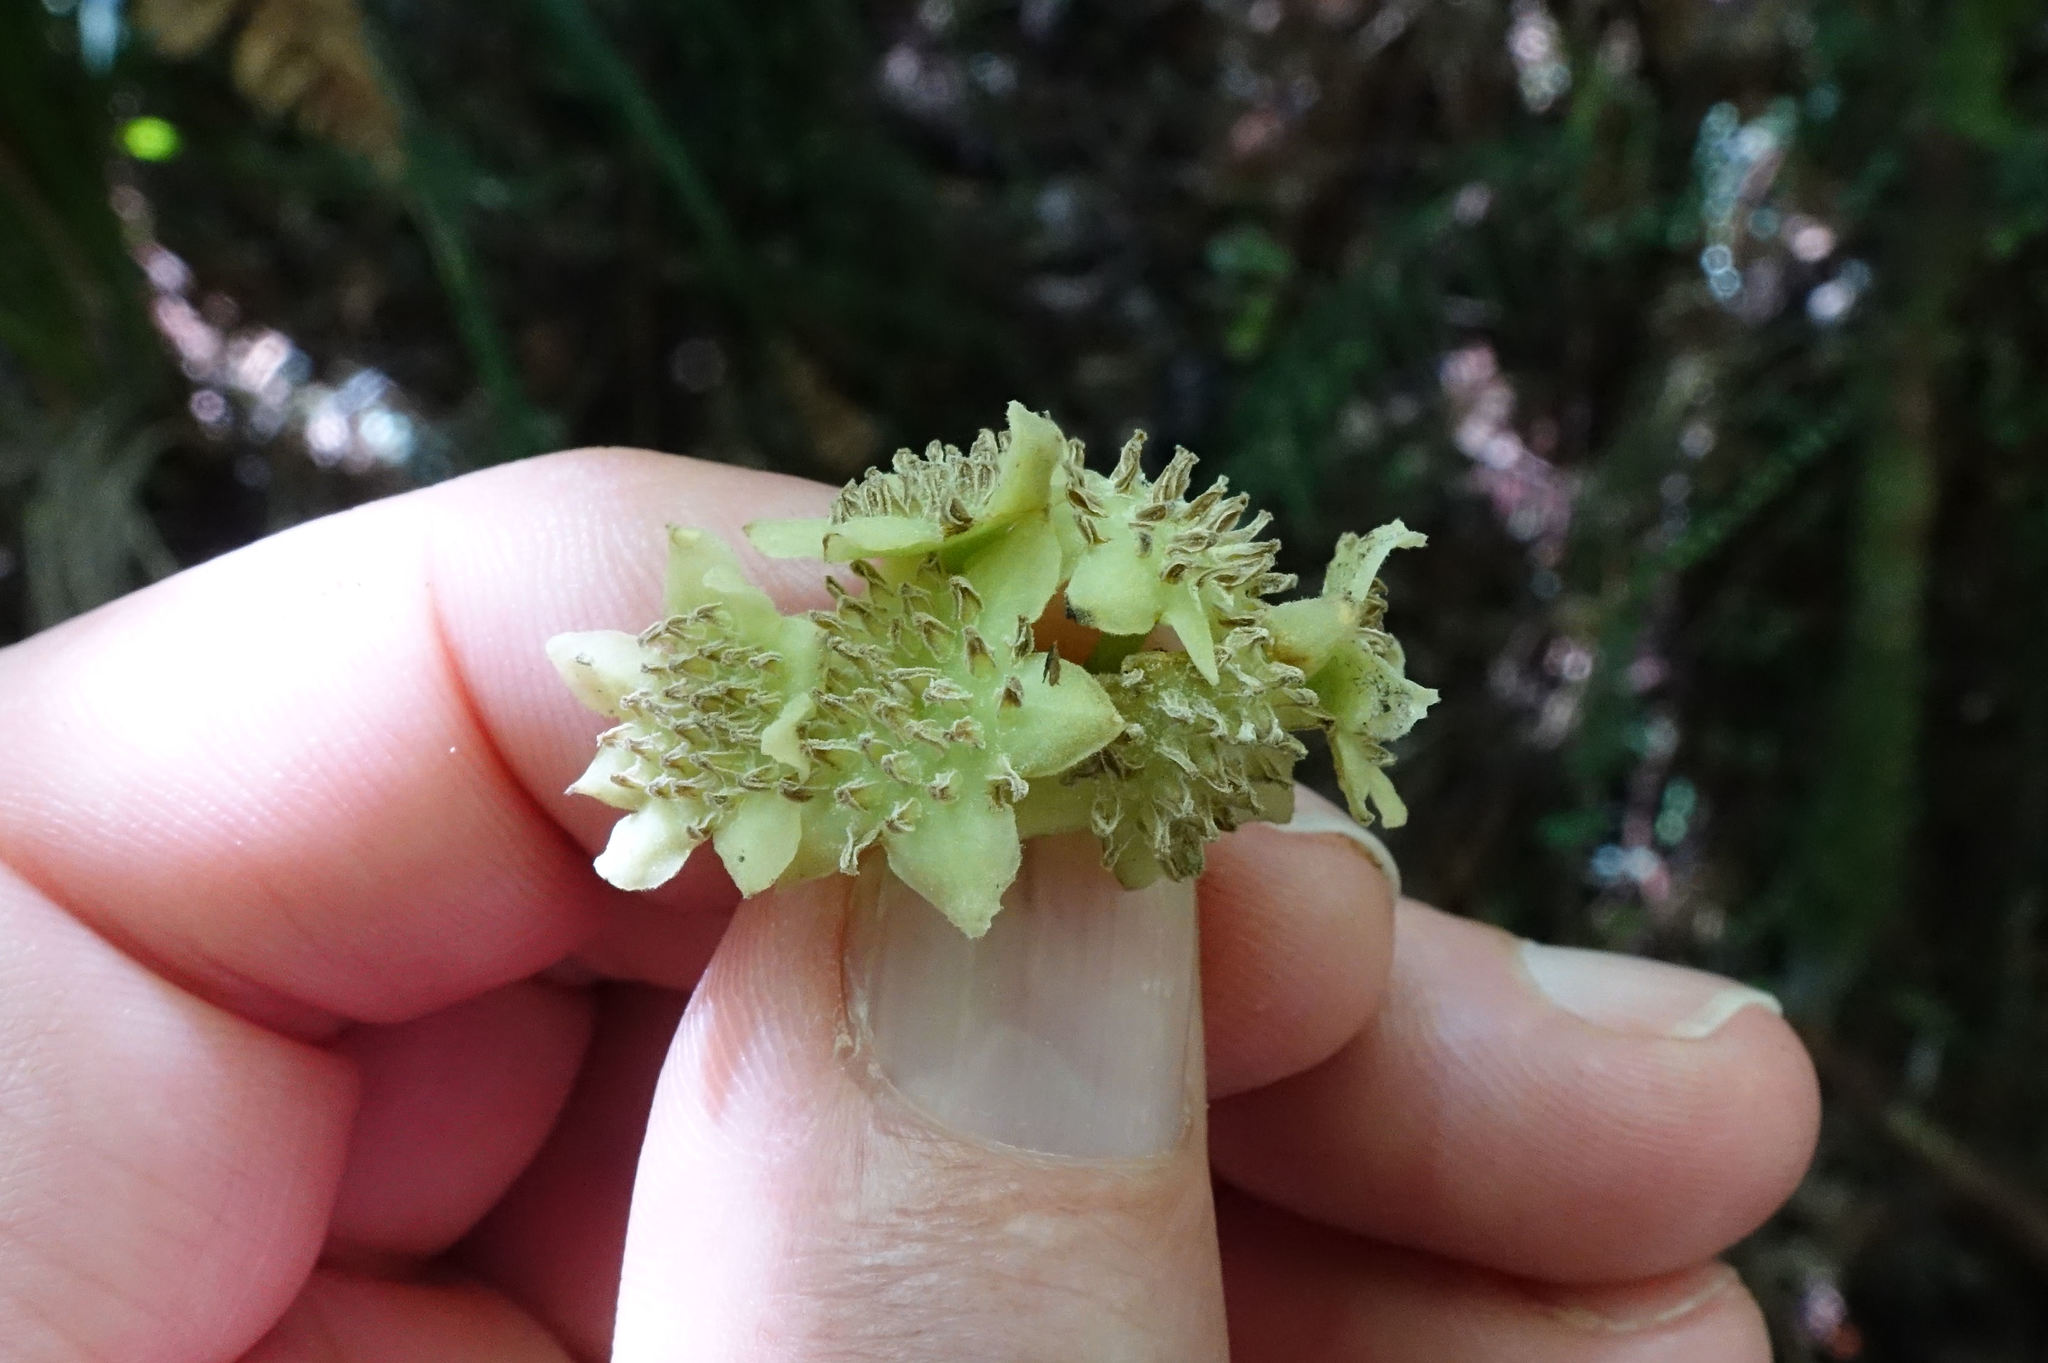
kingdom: Plantae
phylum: Tracheophyta
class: Magnoliopsida
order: Laurales
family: Monimiaceae
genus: Hedycarya
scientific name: Hedycarya arborea
